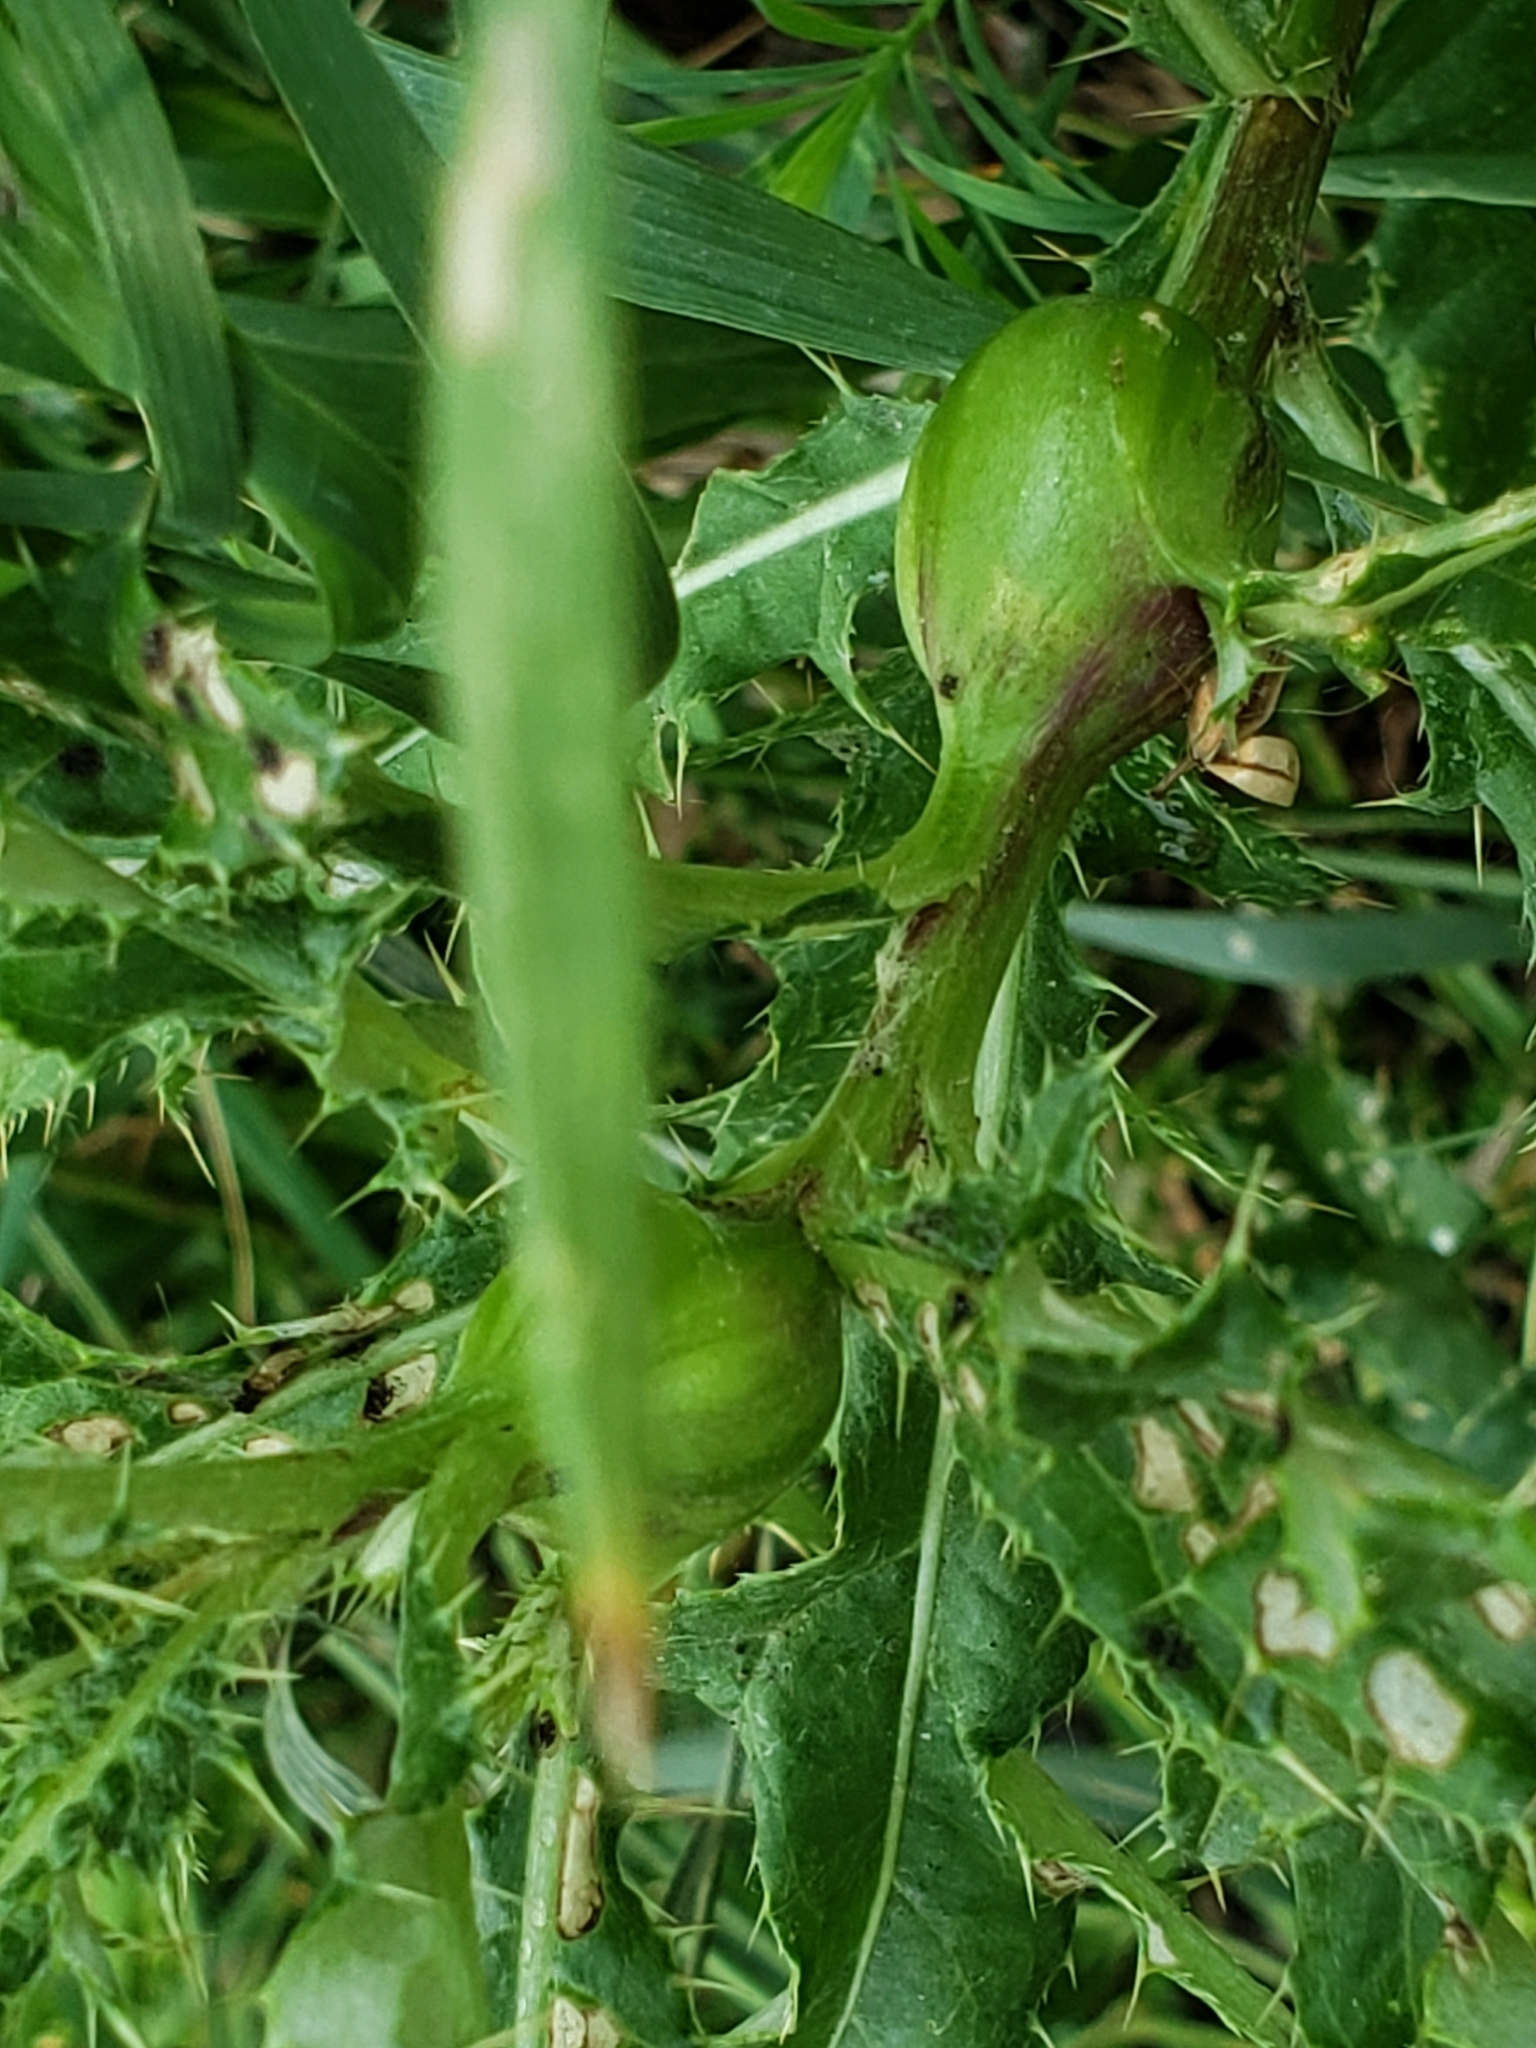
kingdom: Plantae
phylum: Tracheophyta
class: Magnoliopsida
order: Asterales
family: Asteraceae
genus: Cirsium
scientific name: Cirsium arvense
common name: Creeping thistle
